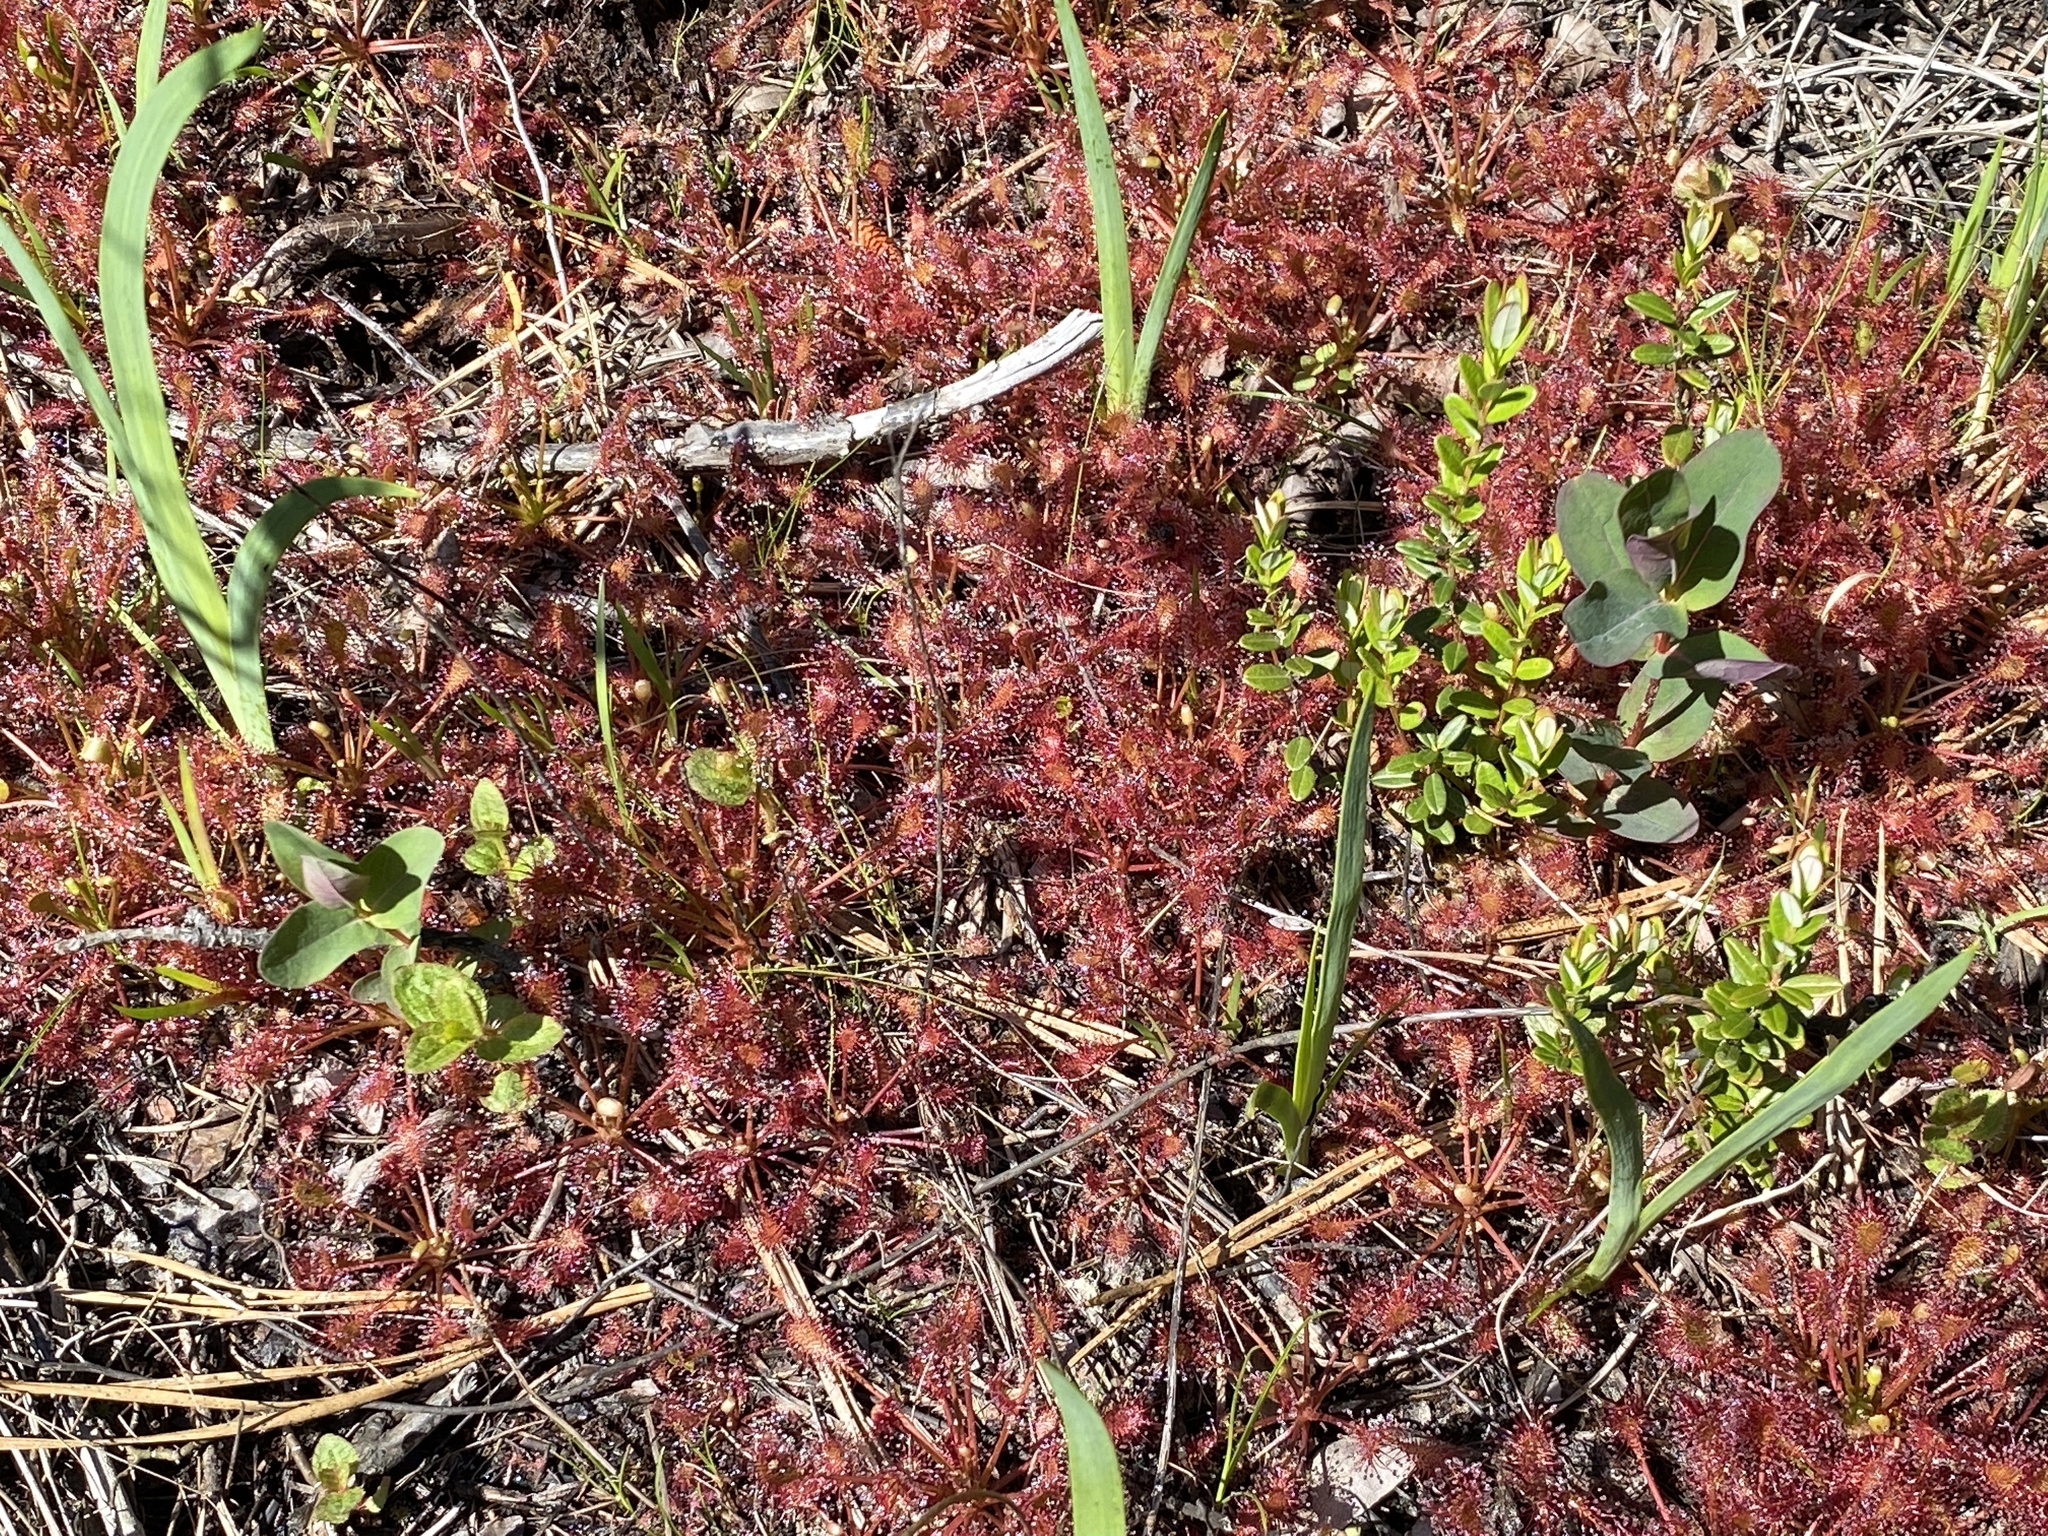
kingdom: Plantae
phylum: Tracheophyta
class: Magnoliopsida
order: Caryophyllales
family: Droseraceae
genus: Drosera
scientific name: Drosera intermedia
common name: Oblong-leaved sundew
